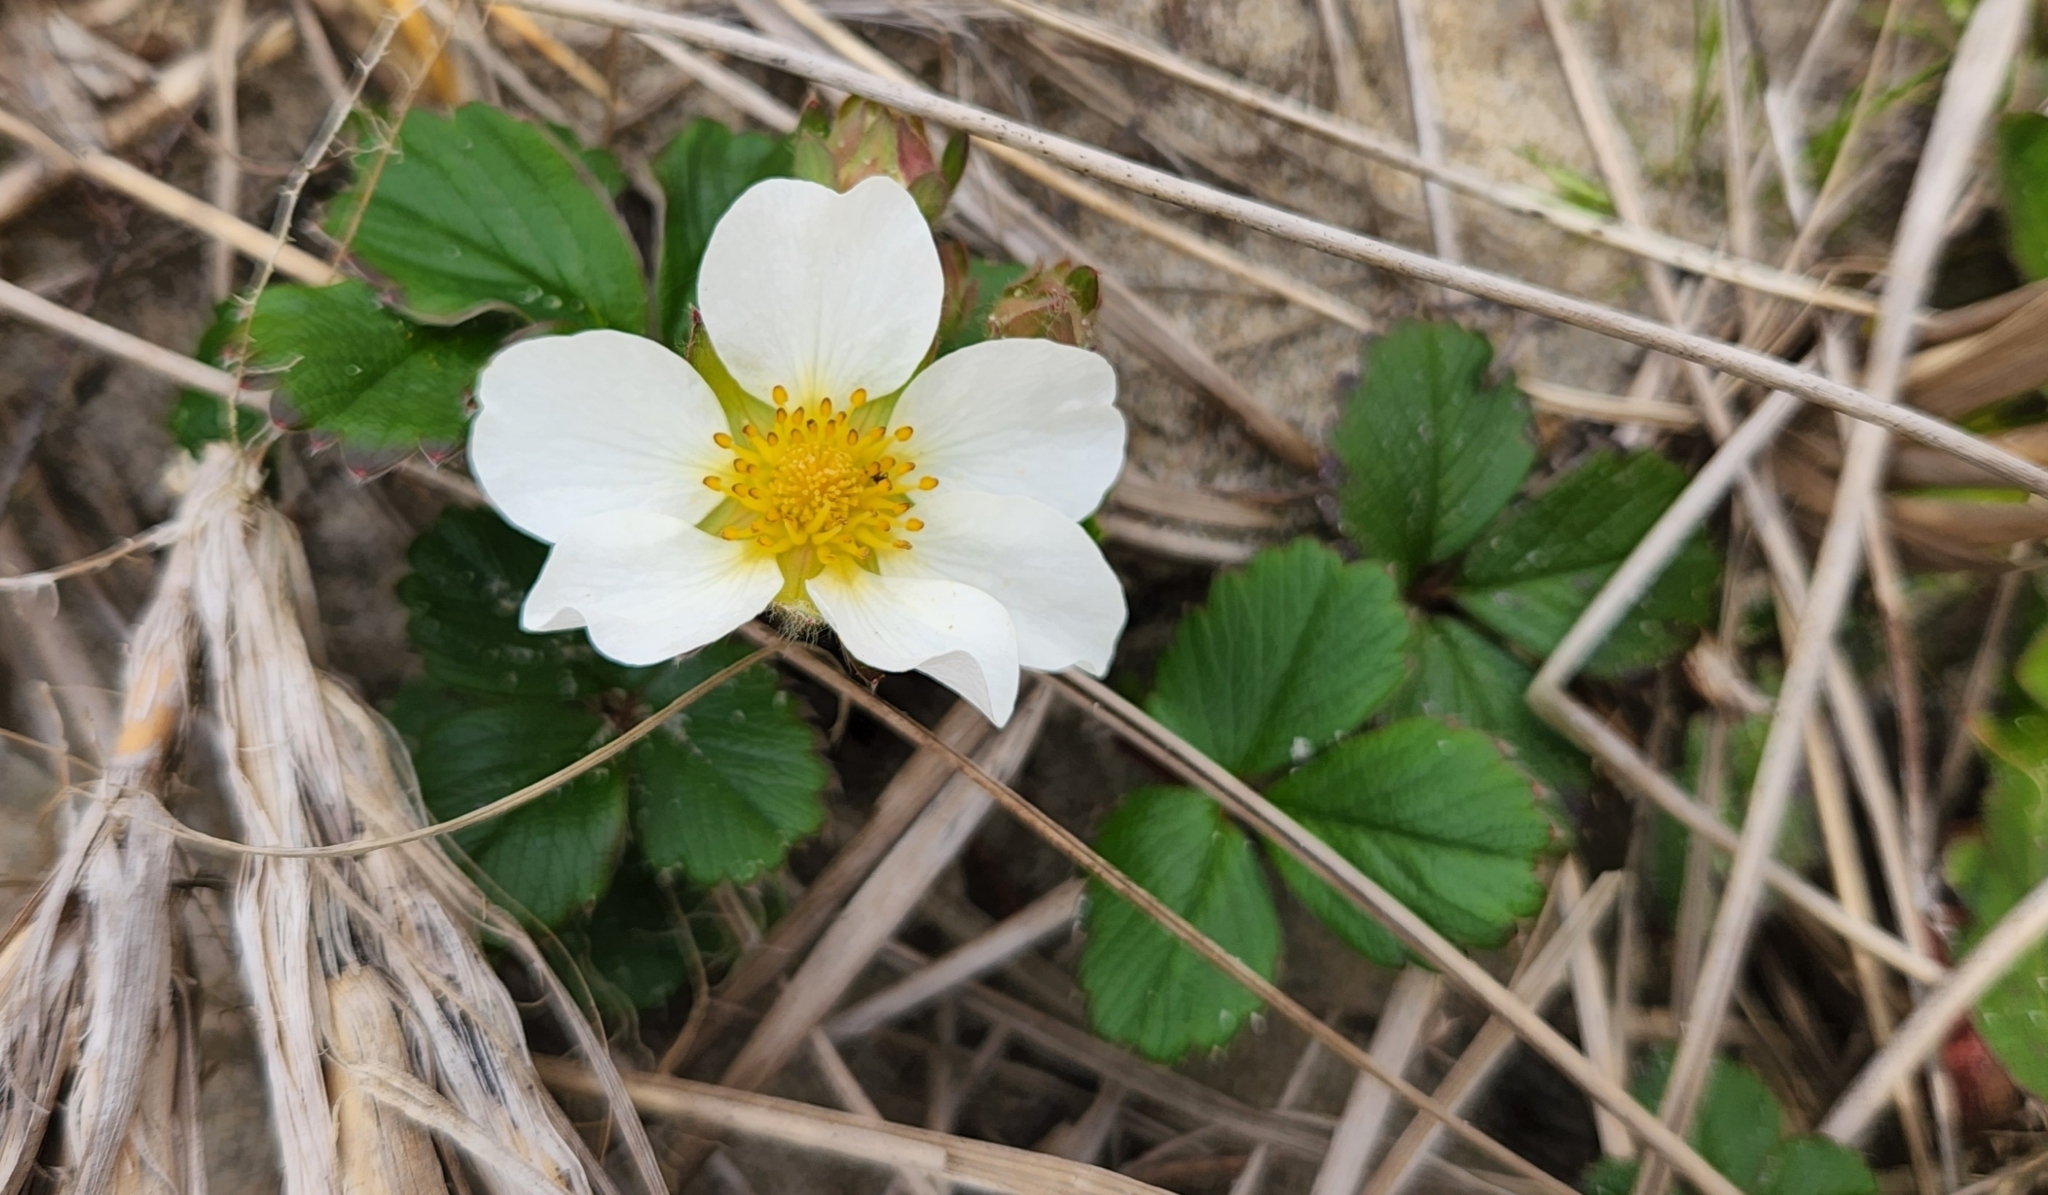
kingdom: Plantae
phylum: Tracheophyta
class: Magnoliopsida
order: Rosales
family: Rosaceae
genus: Fragaria
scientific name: Fragaria chiloensis
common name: Beach strawberry
